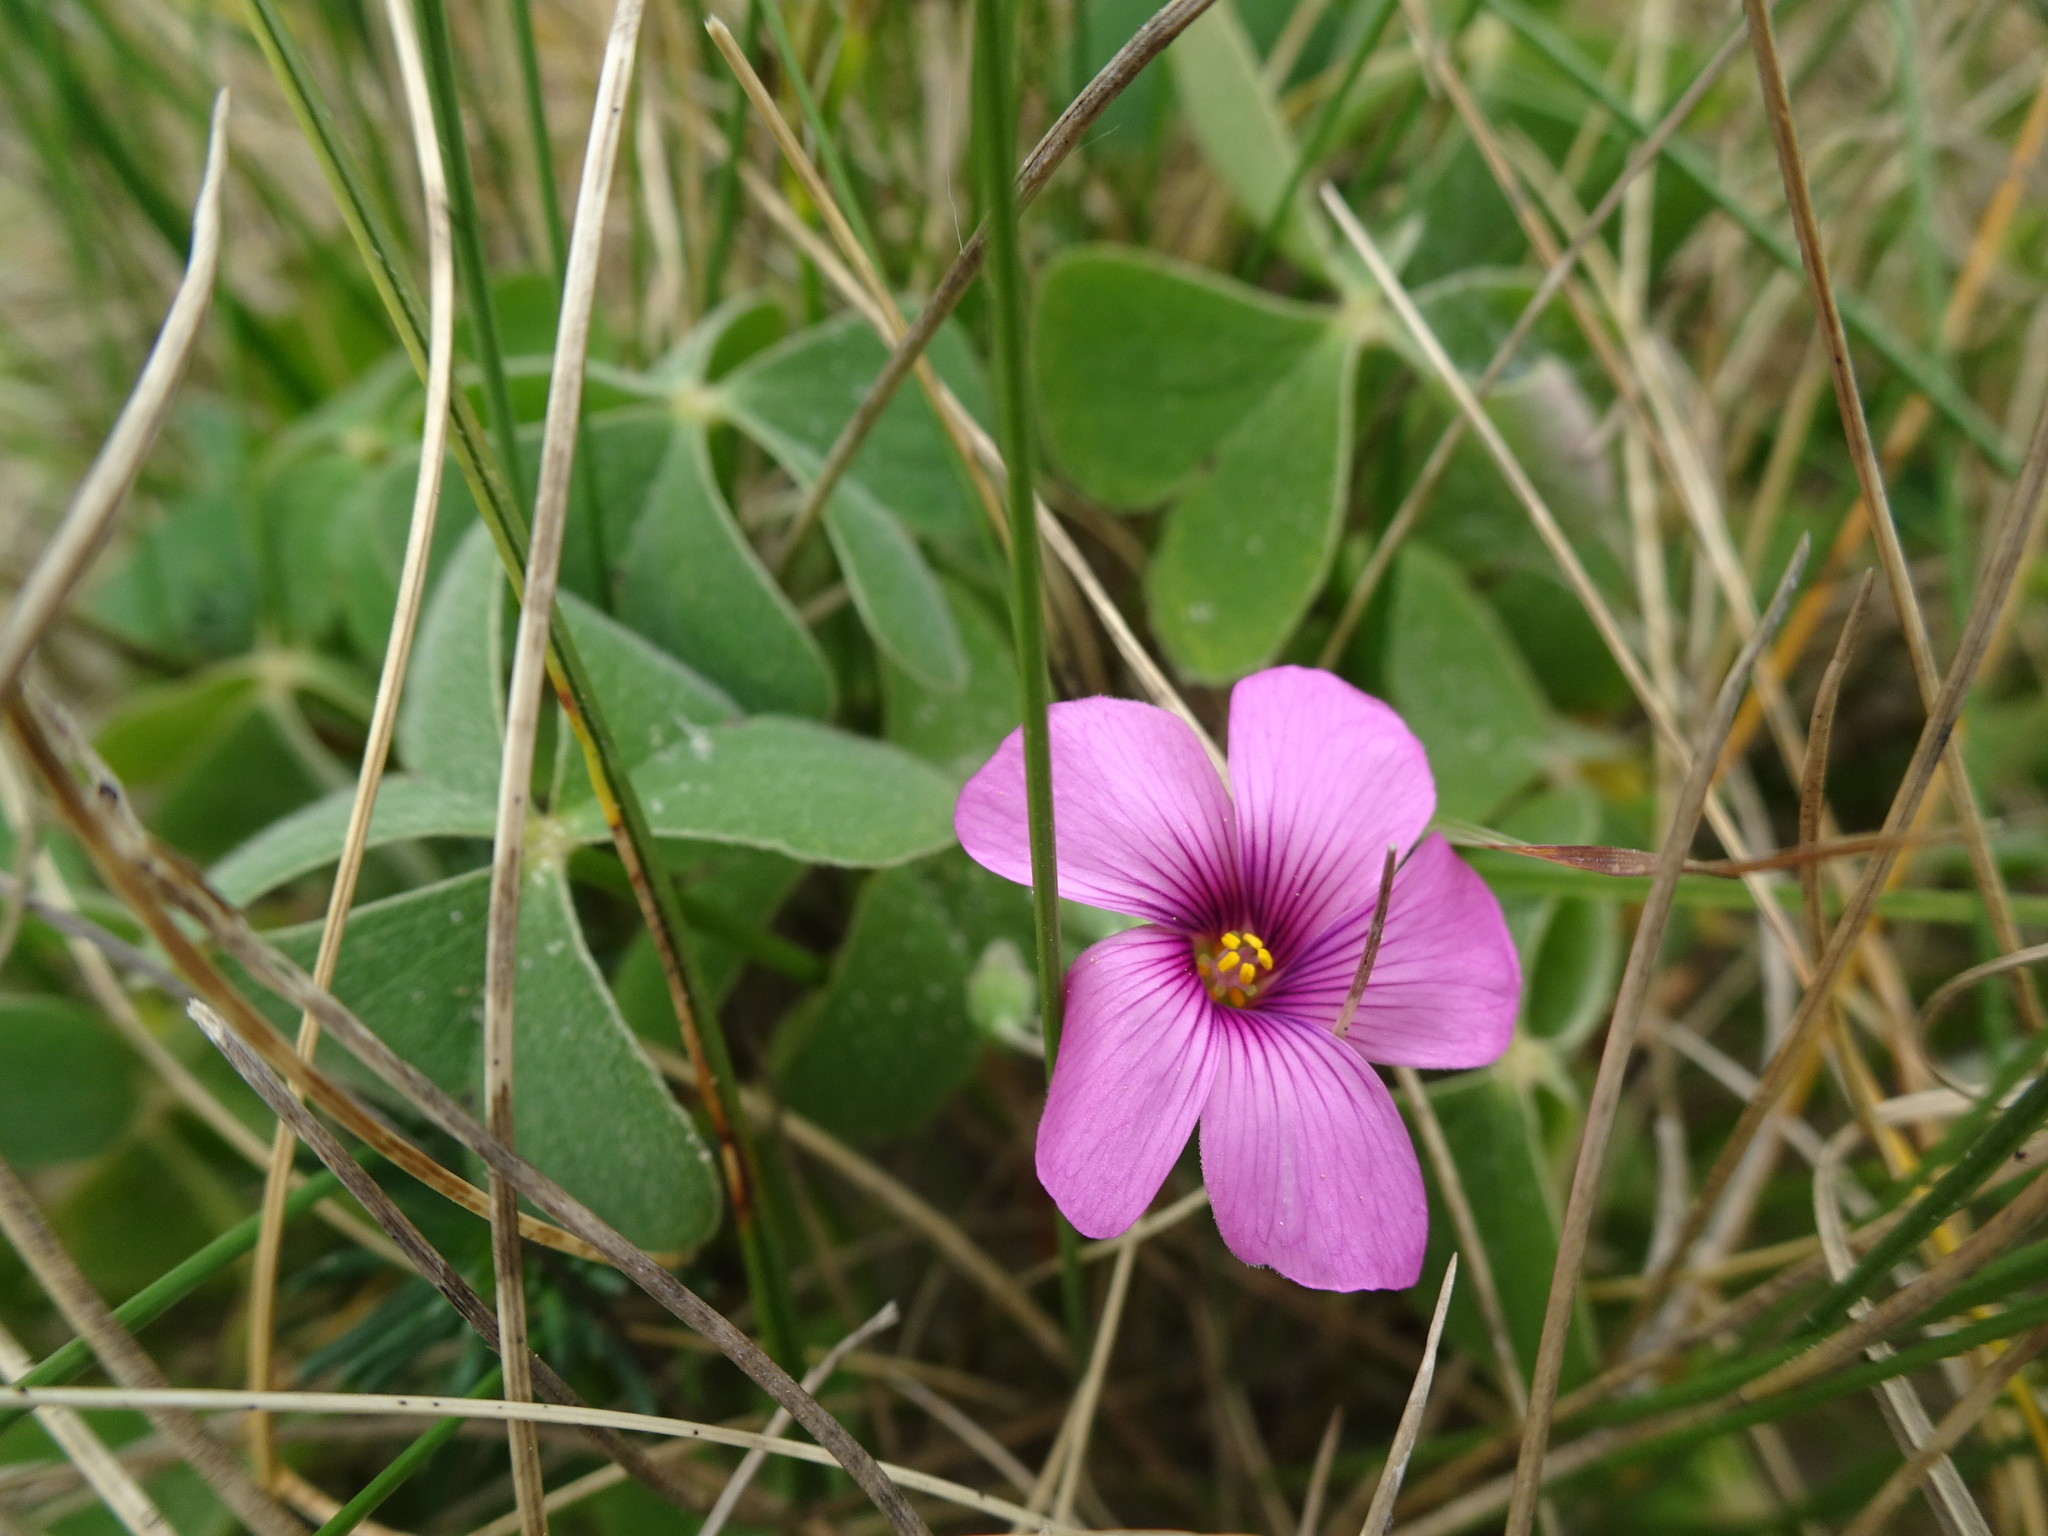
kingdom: Plantae
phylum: Tracheophyta
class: Magnoliopsida
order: Oxalidales
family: Oxalidaceae
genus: Oxalis
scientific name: Oxalis articulata
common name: Pink-sorrel
